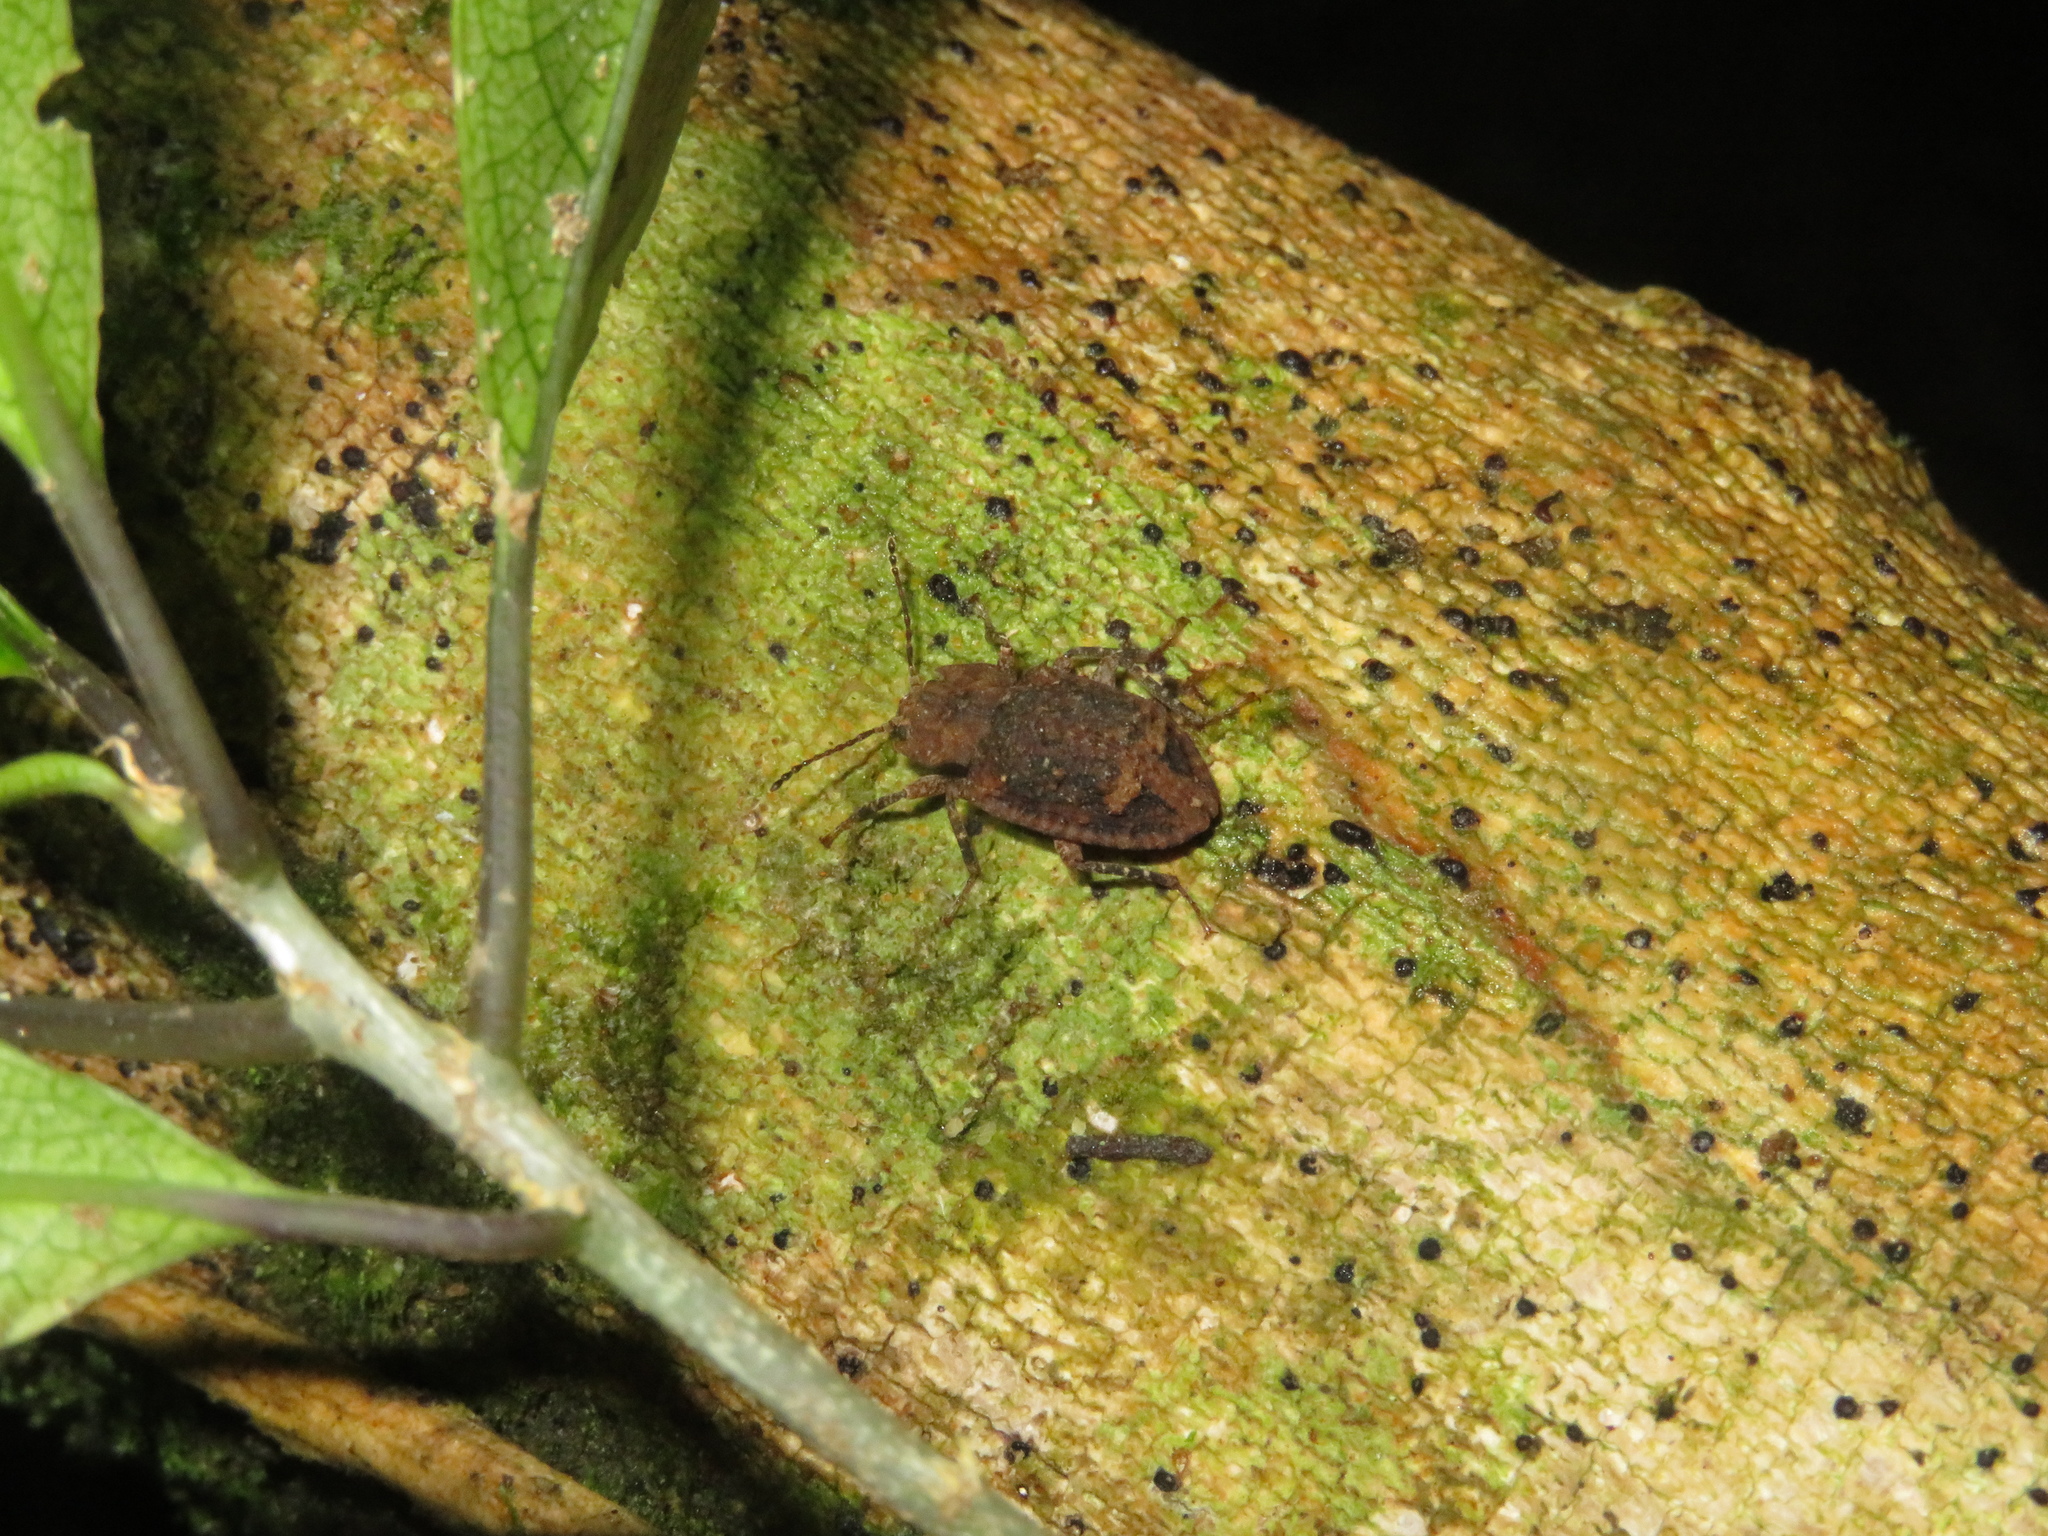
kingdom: Animalia
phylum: Arthropoda
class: Insecta
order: Coleoptera
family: Ulodidae
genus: Syrphetodes
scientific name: Syrphetodes marginatus
